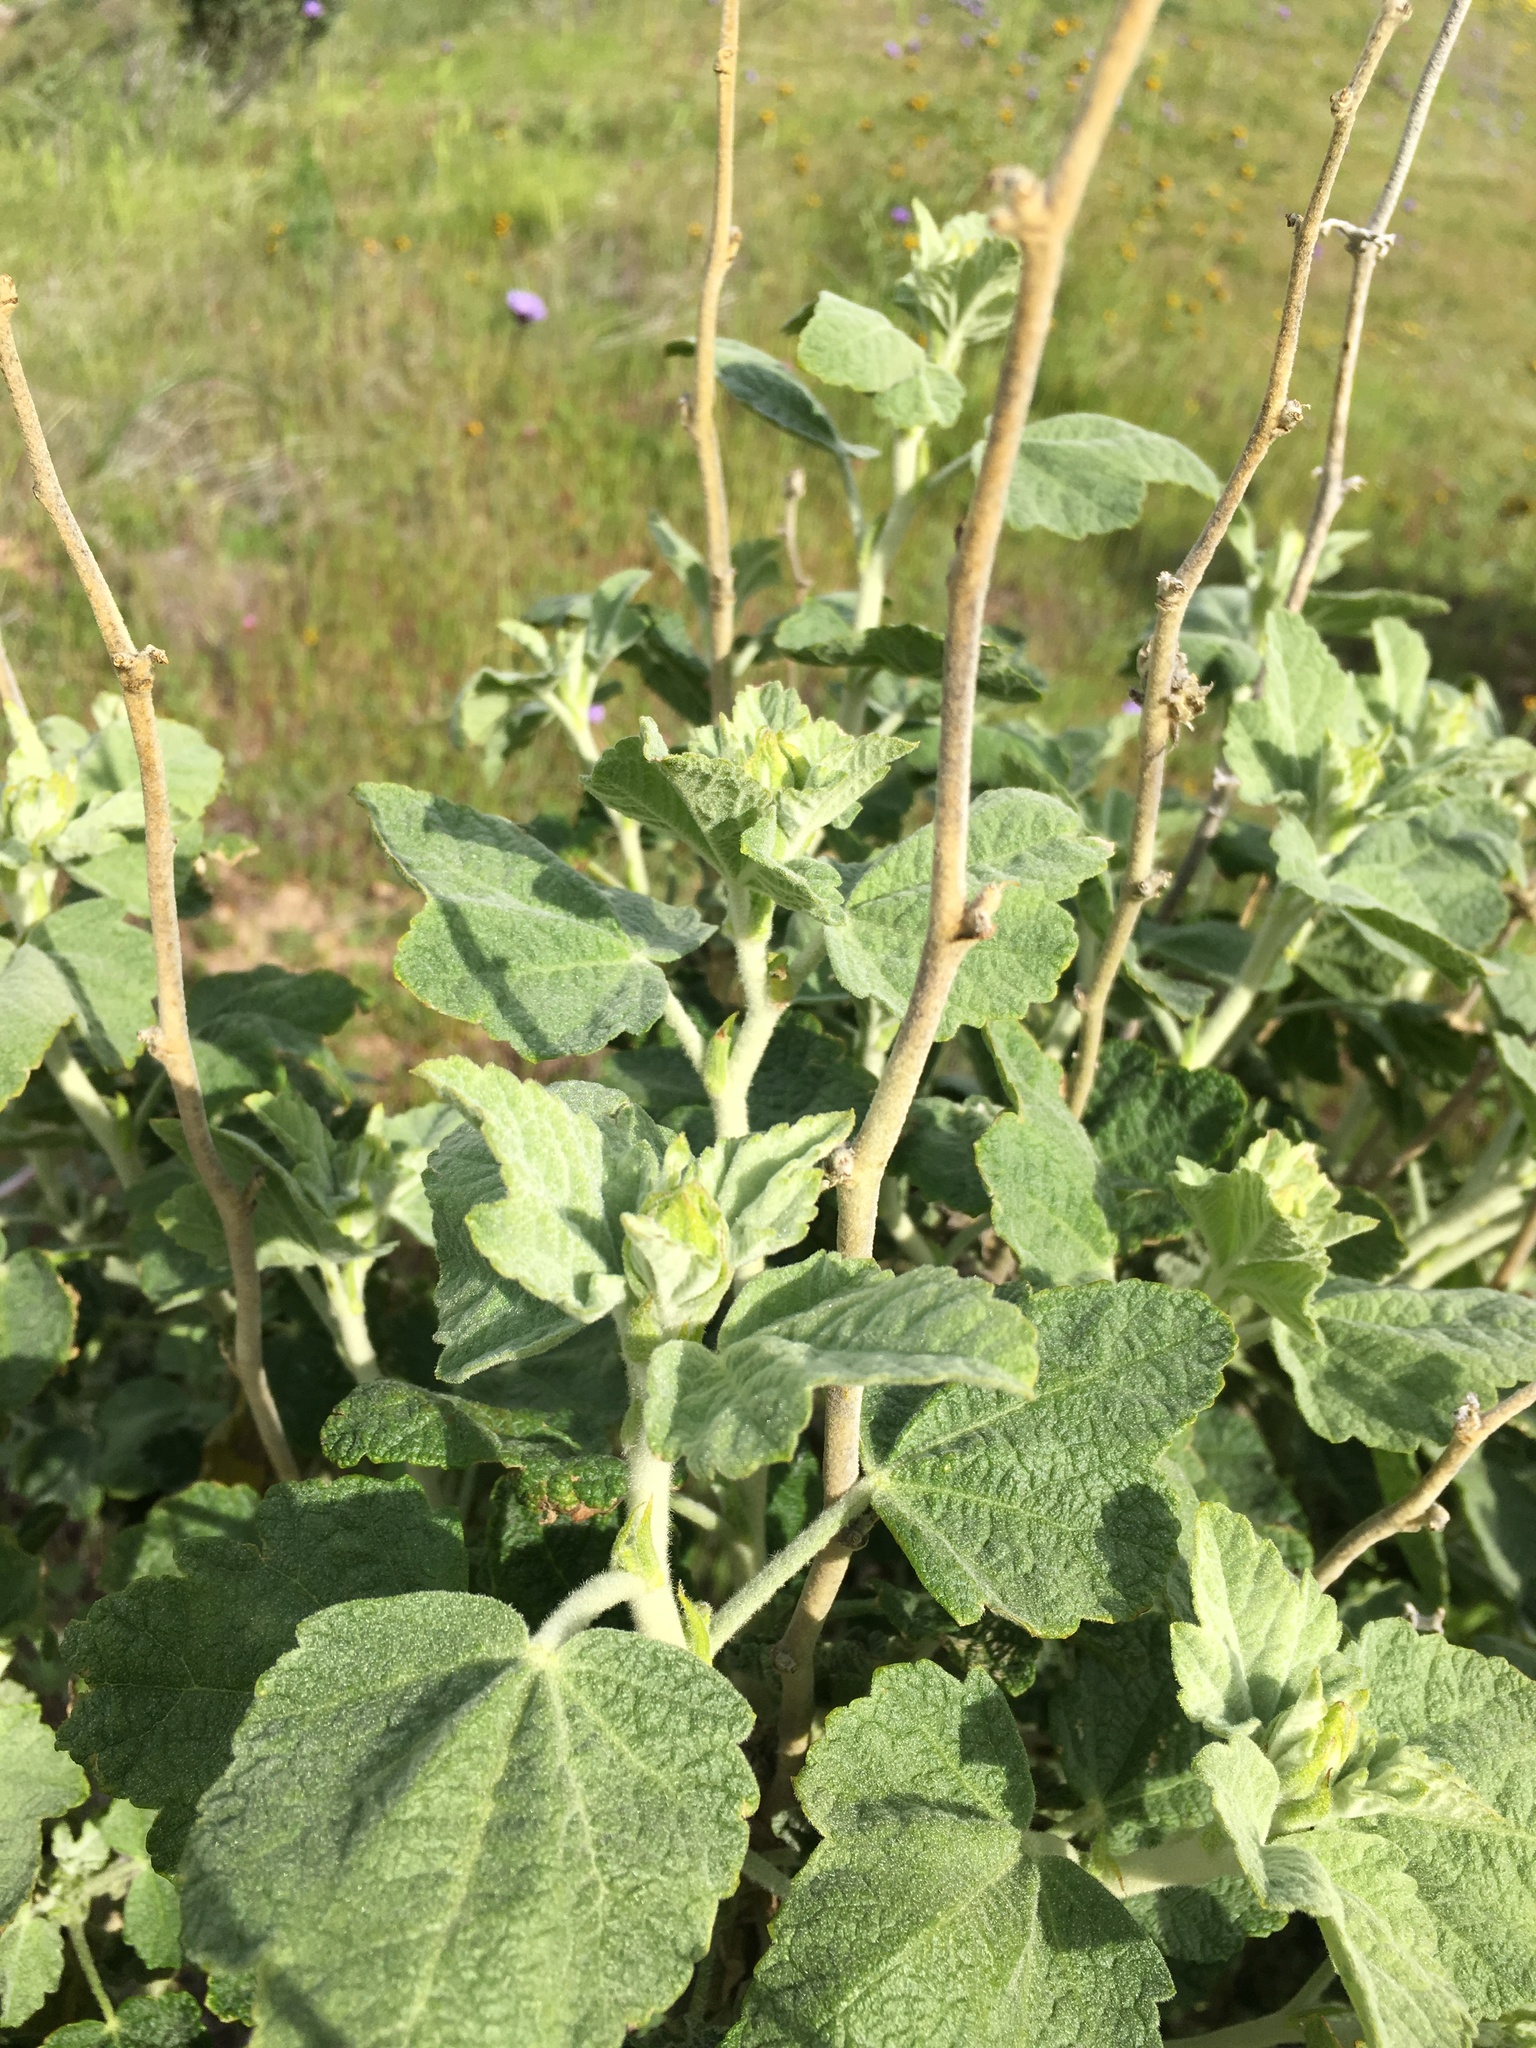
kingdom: Plantae
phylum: Tracheophyta
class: Magnoliopsida
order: Malvales
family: Malvaceae
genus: Malacothamnus
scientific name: Malacothamnus aboriginum
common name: Indian valley bush-mallow
